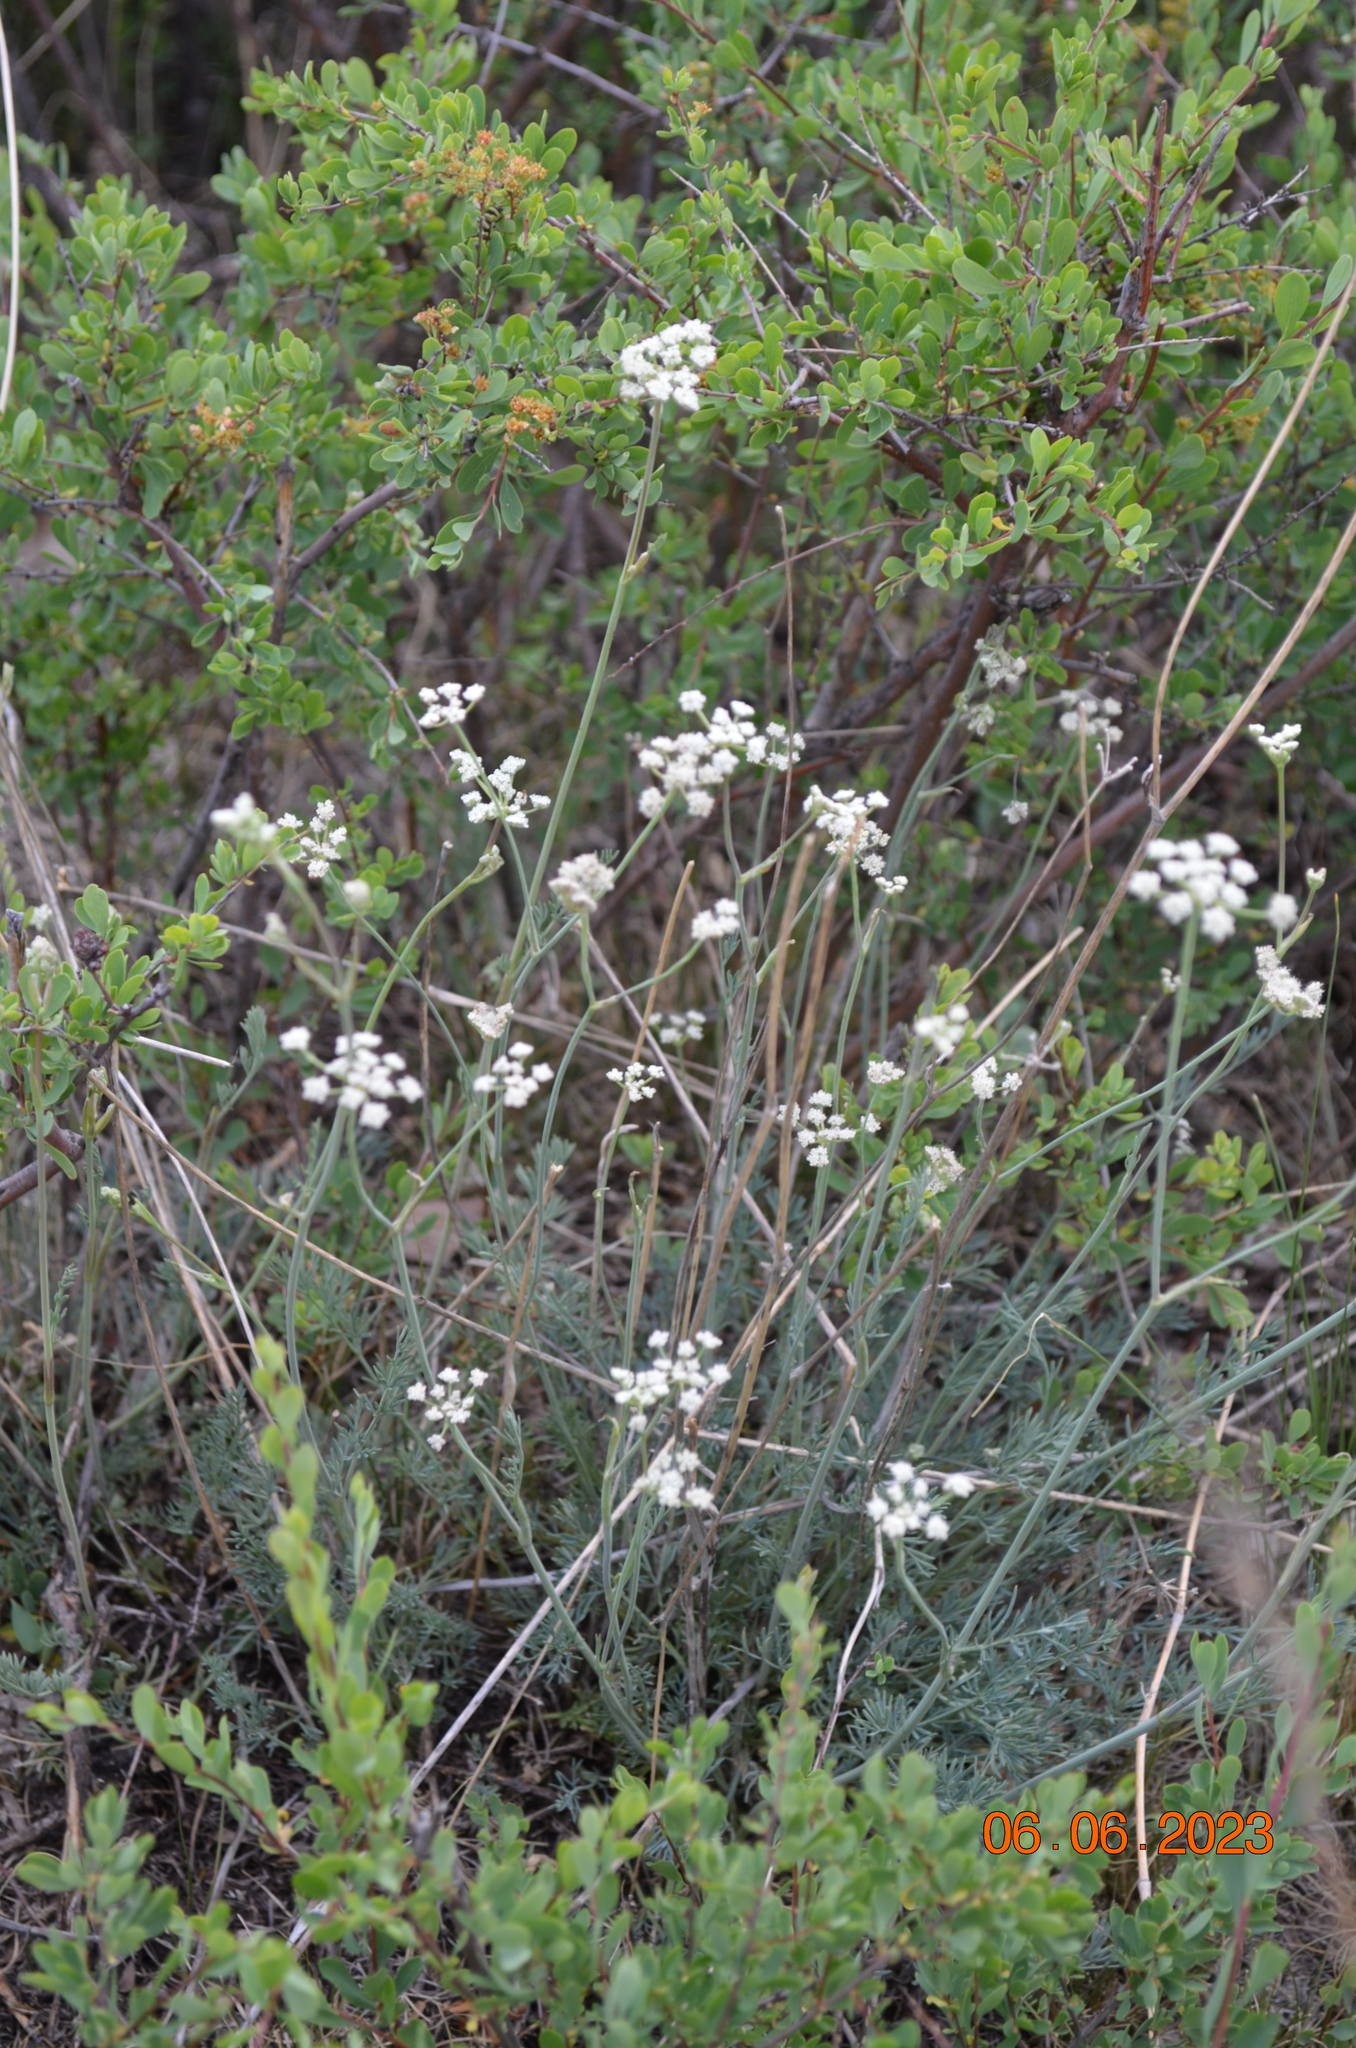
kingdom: Plantae
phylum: Tracheophyta
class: Magnoliopsida
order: Apiales
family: Apiaceae
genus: Seseli
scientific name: Seseli ledebourii
